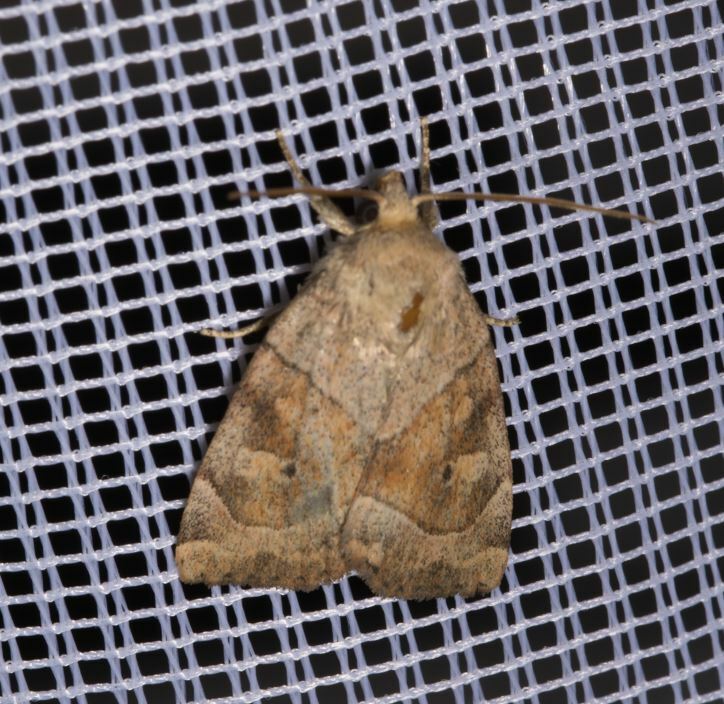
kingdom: Animalia
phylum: Arthropoda
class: Insecta
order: Lepidoptera
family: Noctuidae
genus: Cosmia
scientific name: Cosmia trapezina
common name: Dun-bar
